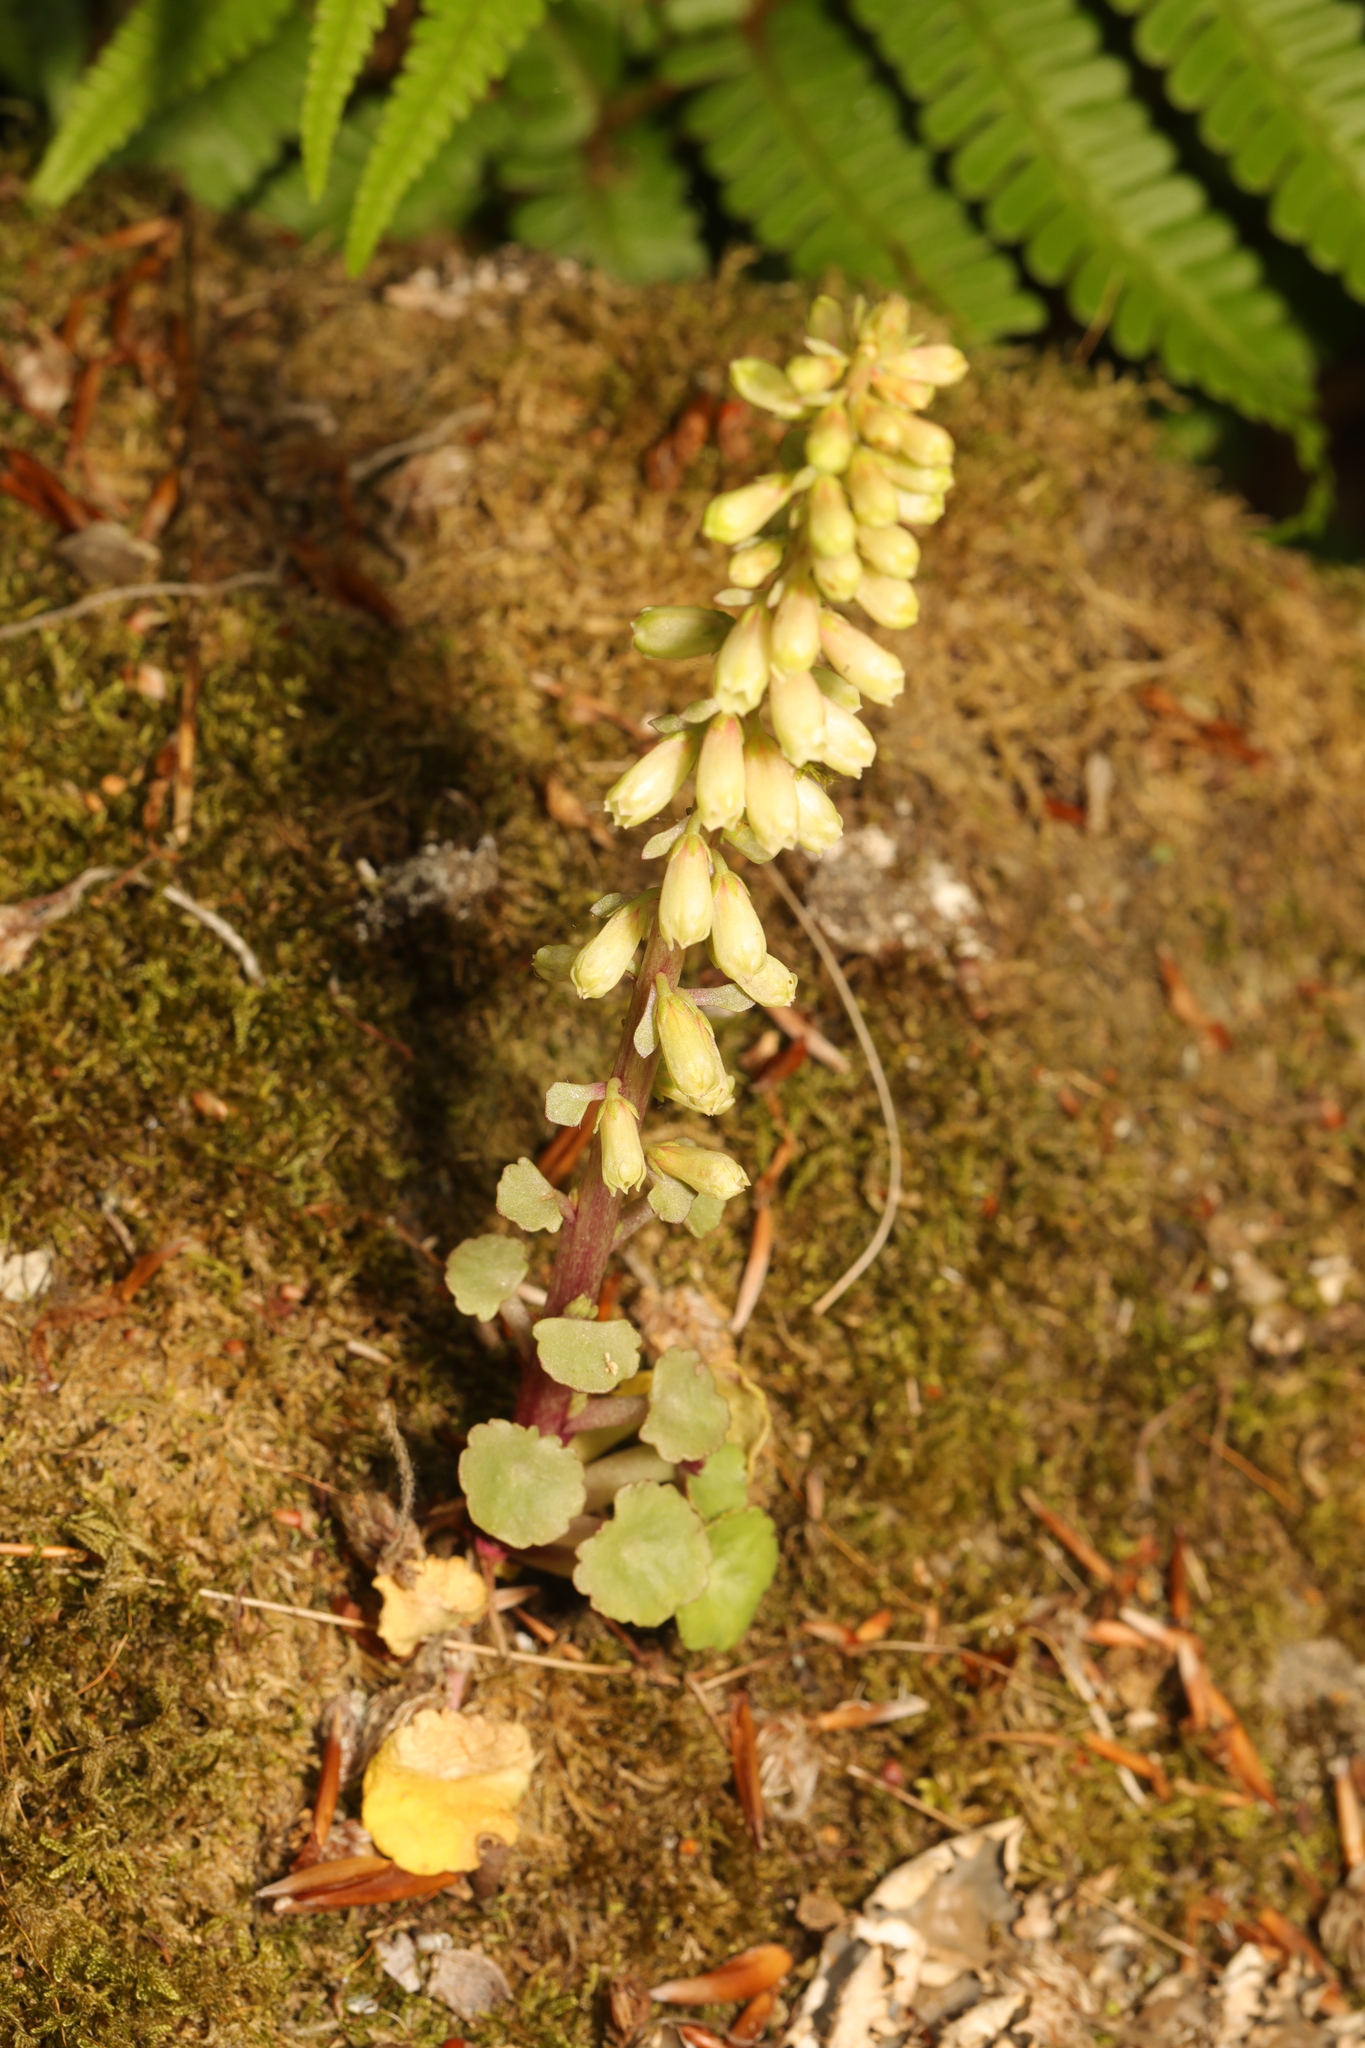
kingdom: Plantae
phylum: Tracheophyta
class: Magnoliopsida
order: Saxifragales
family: Crassulaceae
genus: Umbilicus
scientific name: Umbilicus rupestris
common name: Navelwort
